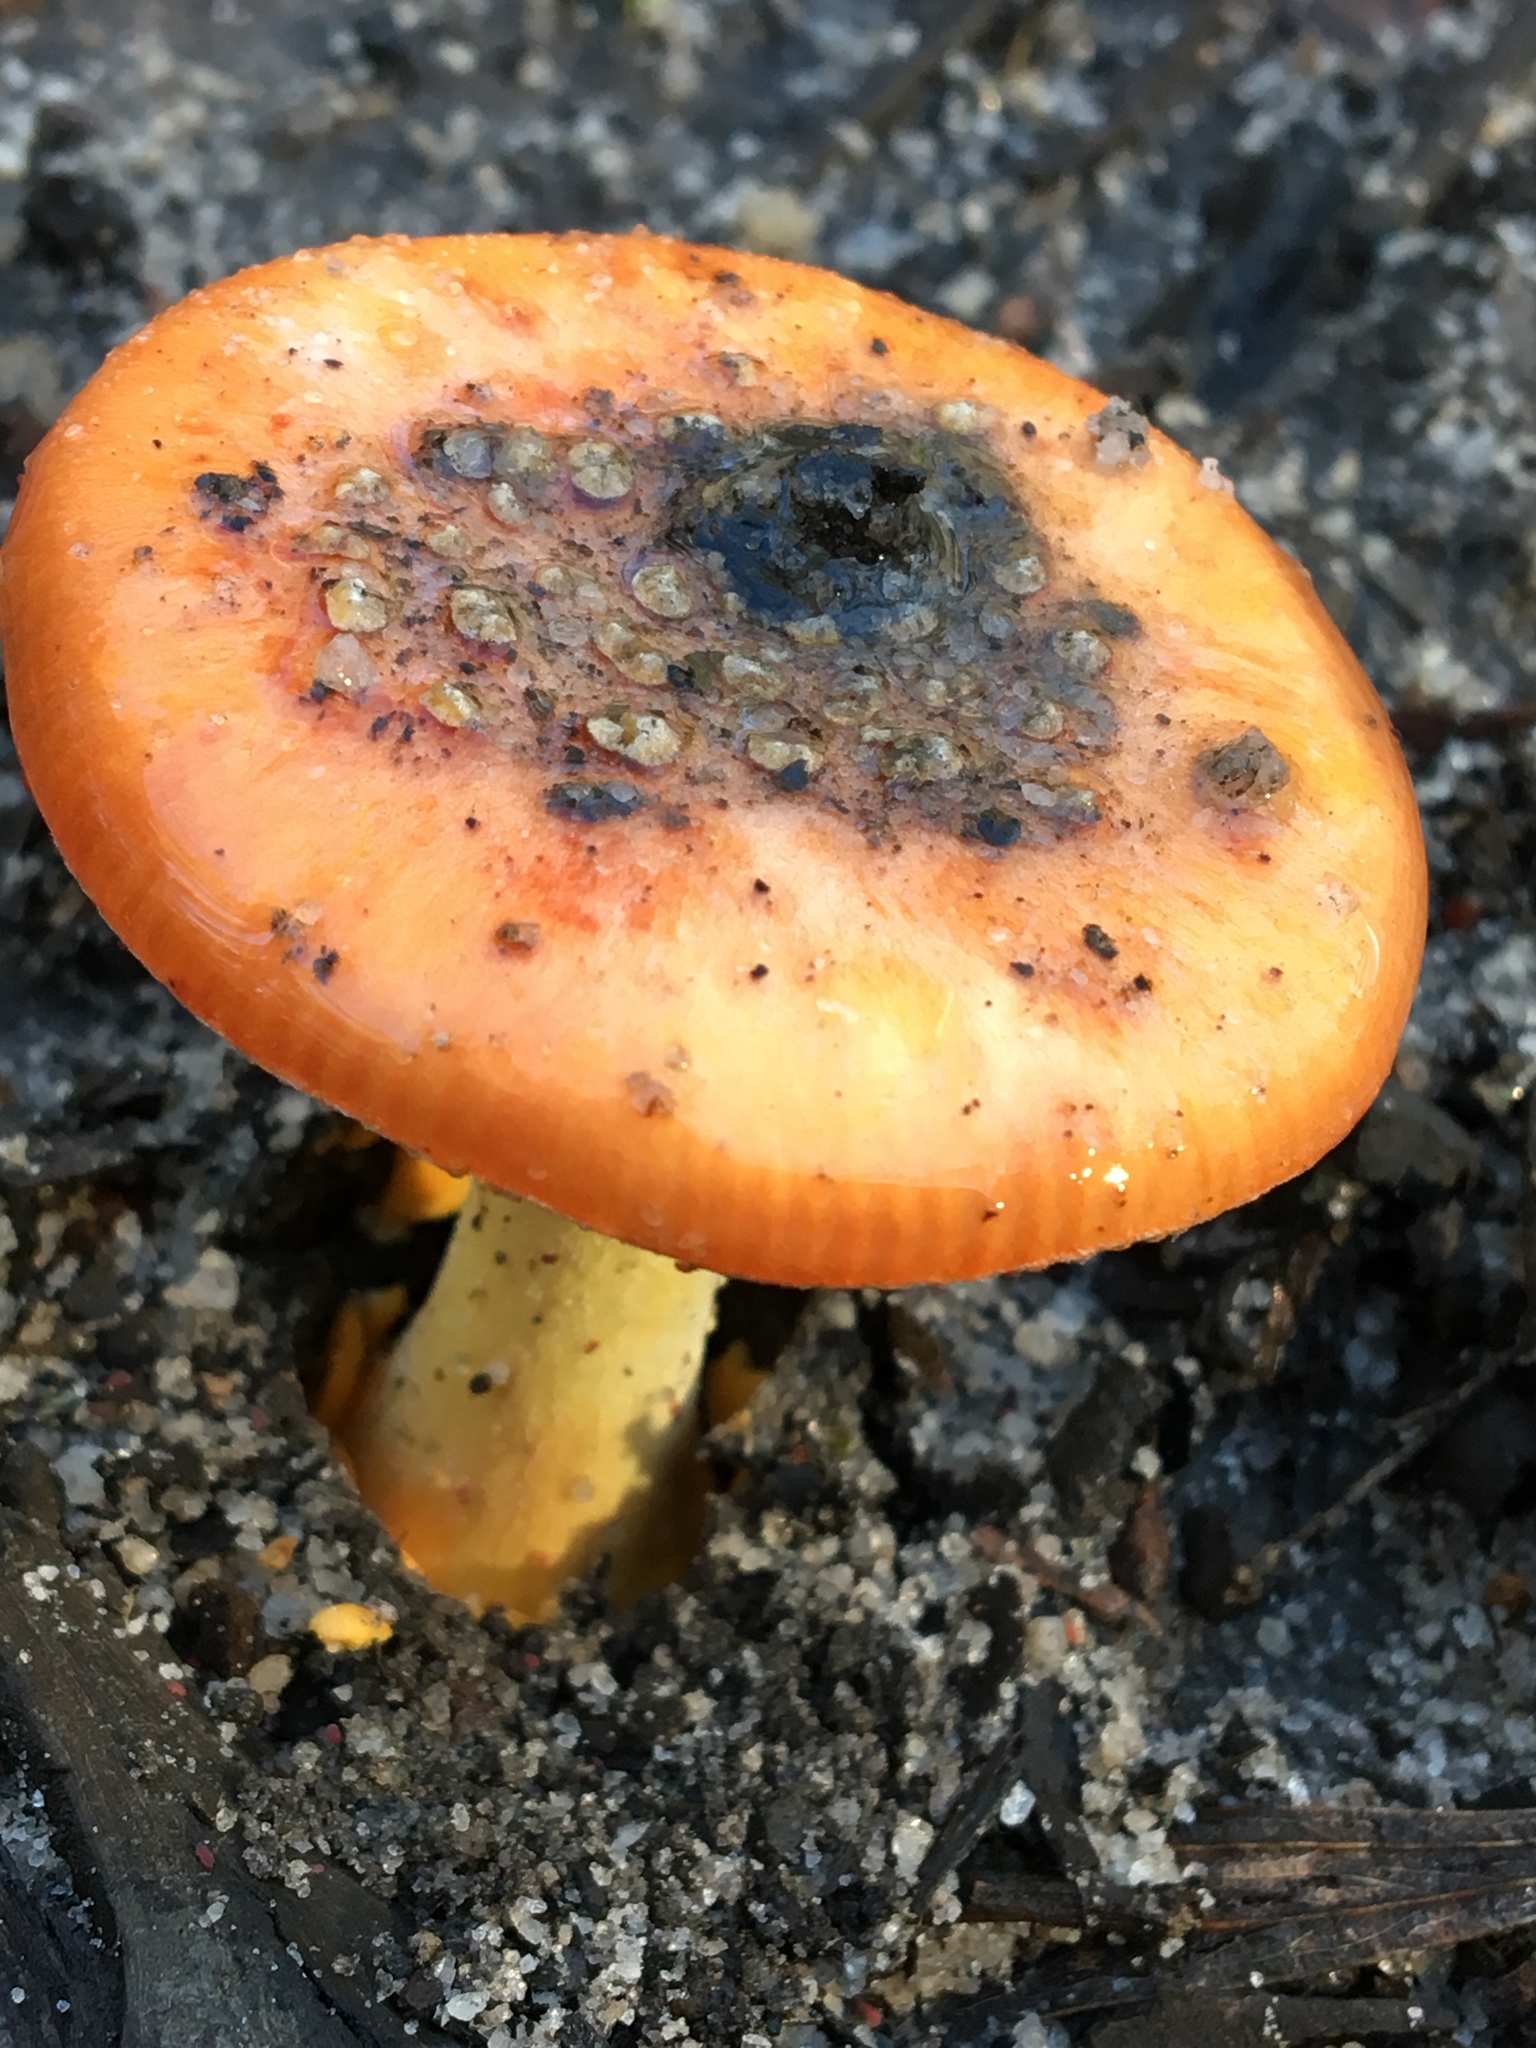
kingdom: Fungi
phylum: Basidiomycota
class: Agaricomycetes
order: Agaricales
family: Amanitaceae
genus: Amanita
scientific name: Amanita xanthocephala
